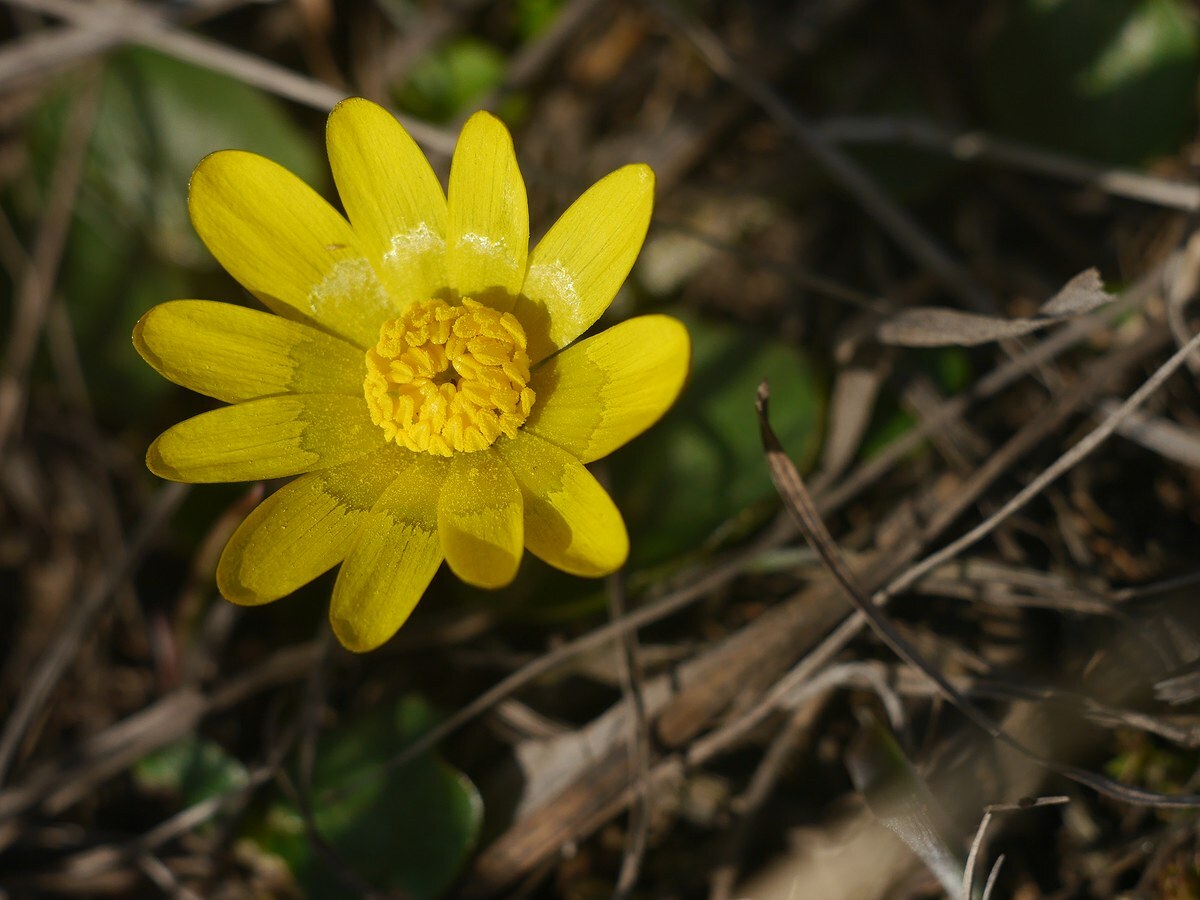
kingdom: Plantae
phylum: Tracheophyta
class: Magnoliopsida
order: Ranunculales
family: Ranunculaceae
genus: Ficaria
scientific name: Ficaria verna
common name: Lesser celandine
